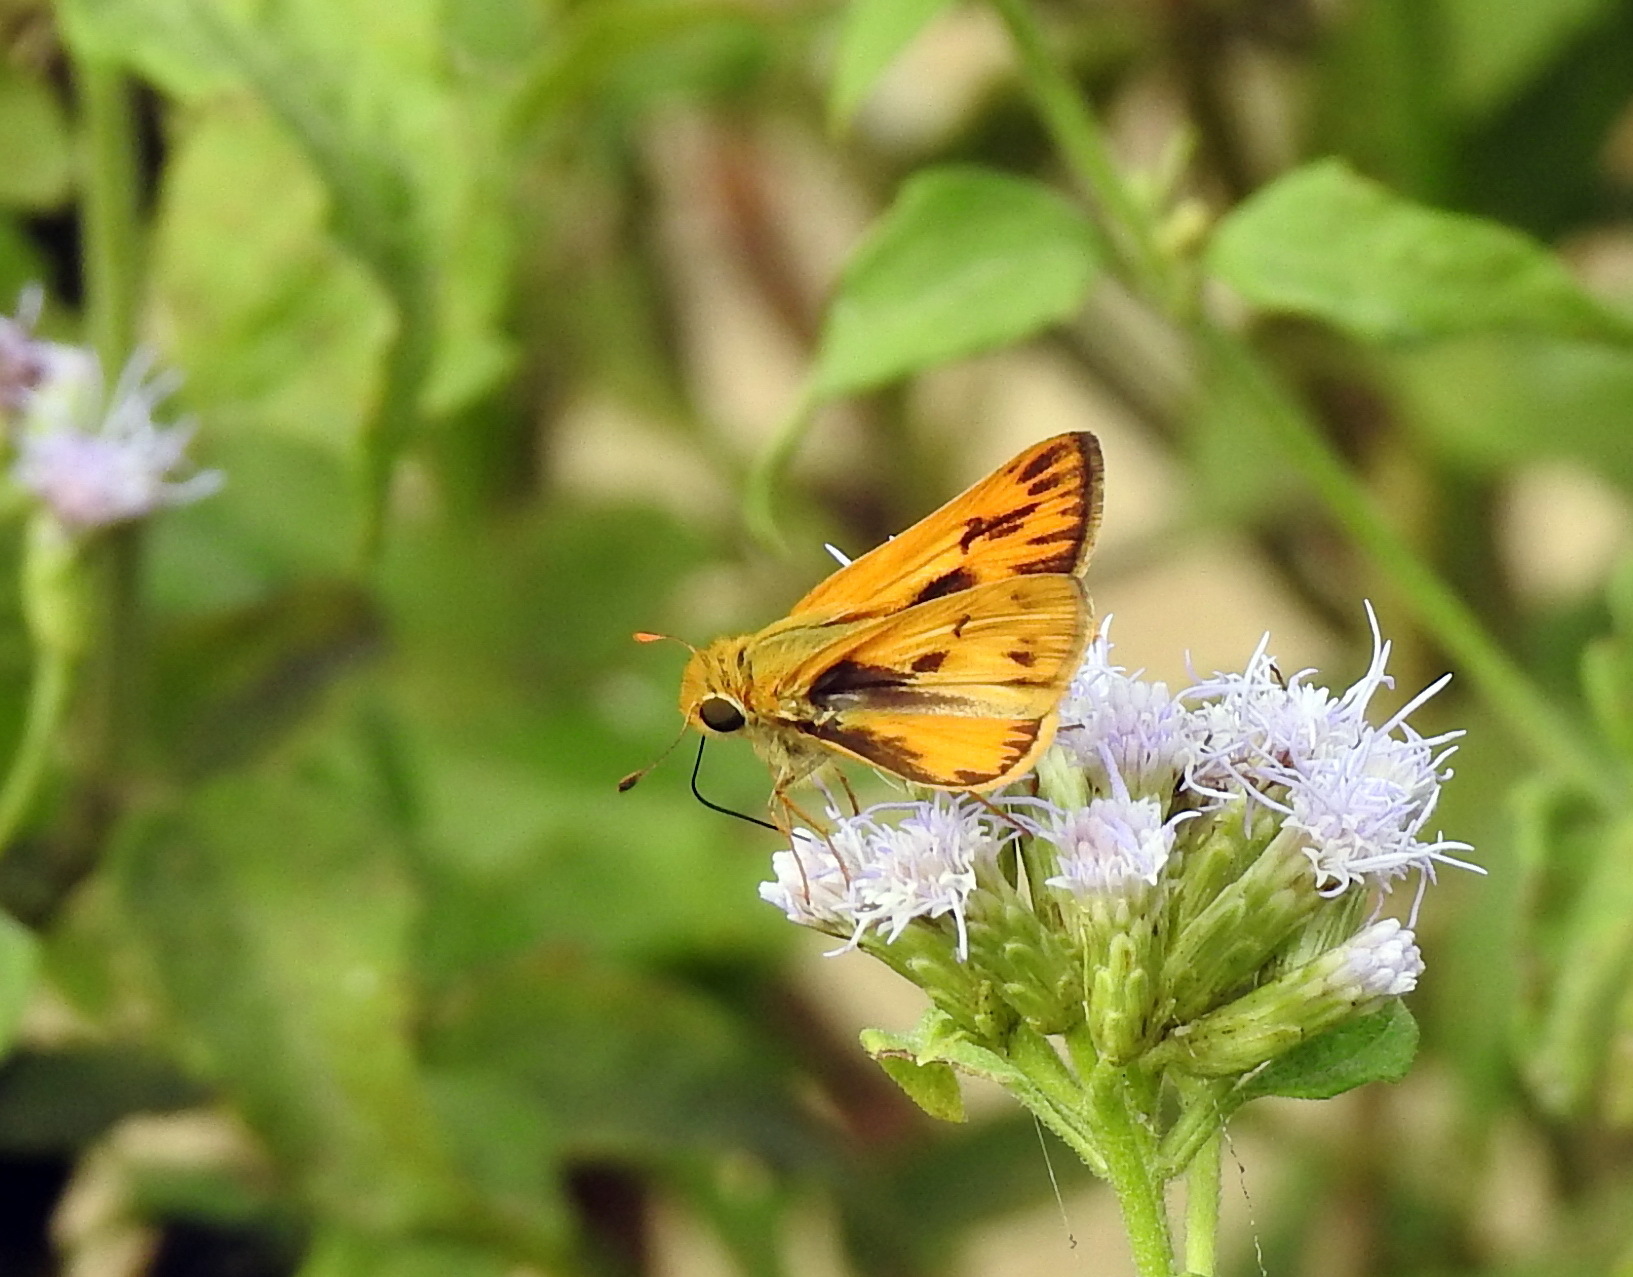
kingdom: Animalia
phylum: Arthropoda
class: Insecta
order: Lepidoptera
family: Hesperiidae
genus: Hylephila
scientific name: Hylephila phyleus
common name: Fiery skipper
